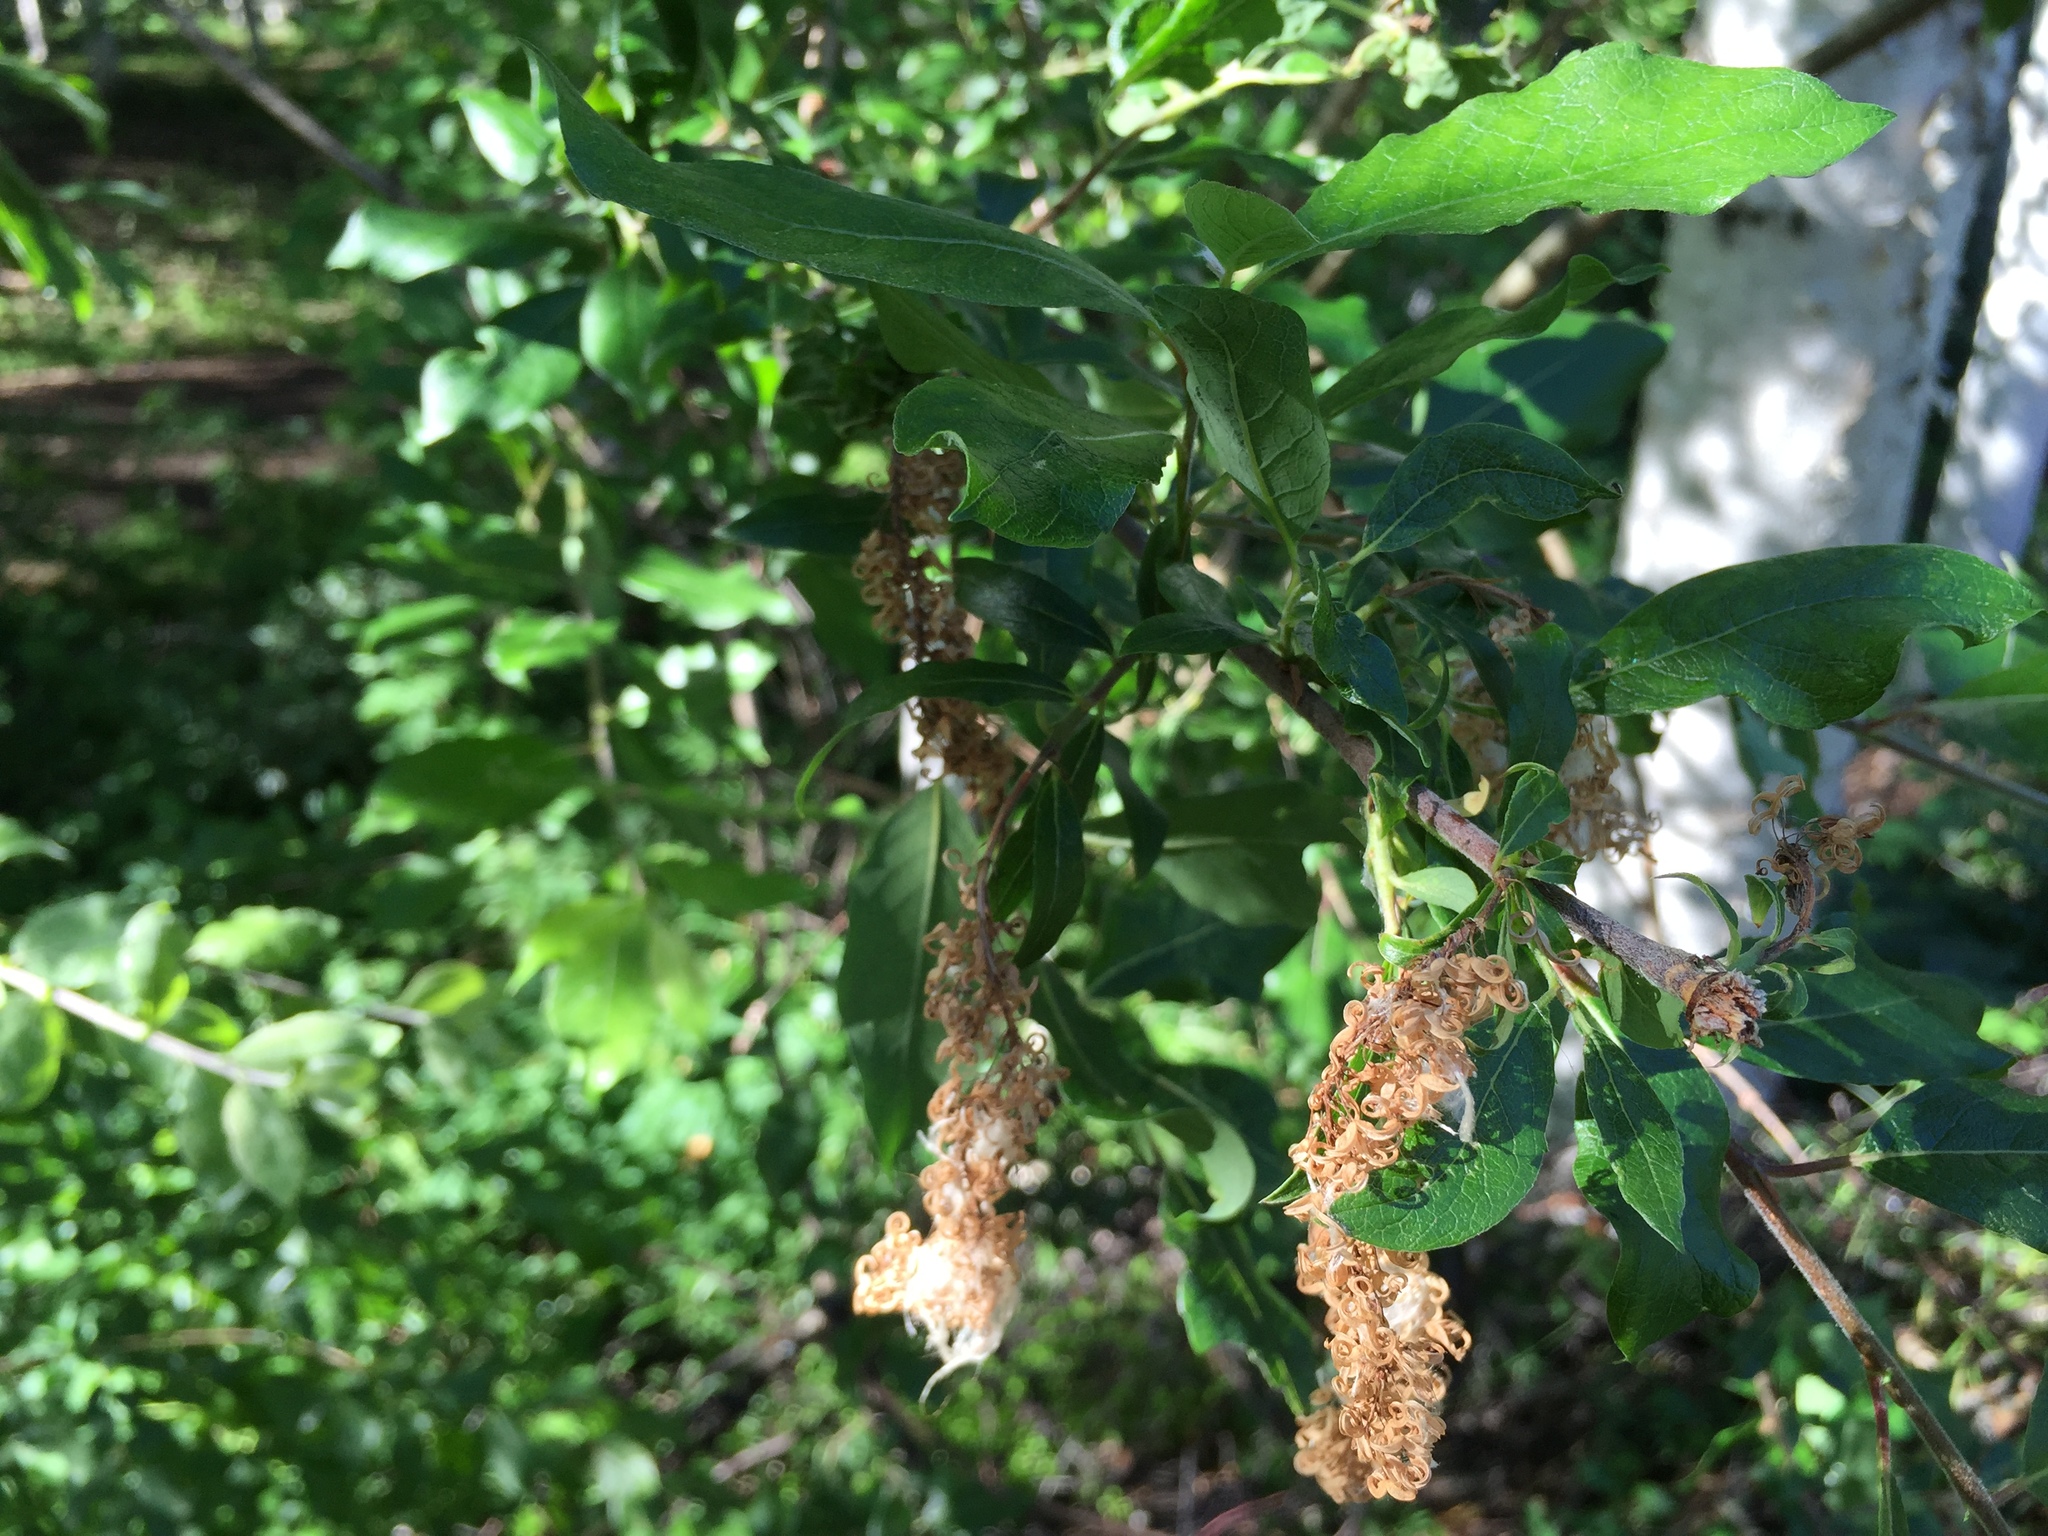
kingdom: Plantae
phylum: Tracheophyta
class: Magnoliopsida
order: Malpighiales
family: Salicaceae
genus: Salix
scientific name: Salix bebbiana
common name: Bebb's willow
